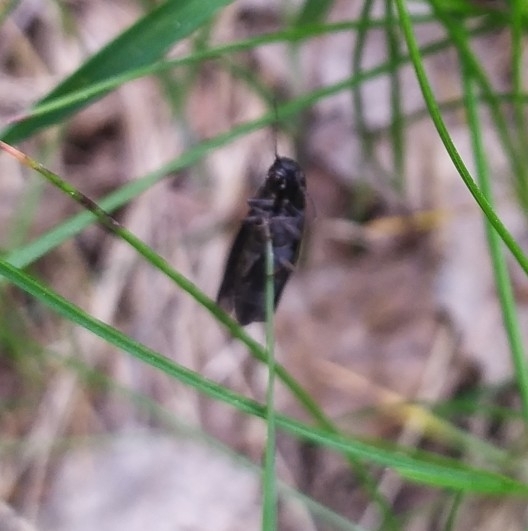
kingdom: Animalia
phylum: Arthropoda
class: Insecta
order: Coleoptera
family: Elateridae
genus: Ectinus
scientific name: Ectinus aterrimus
